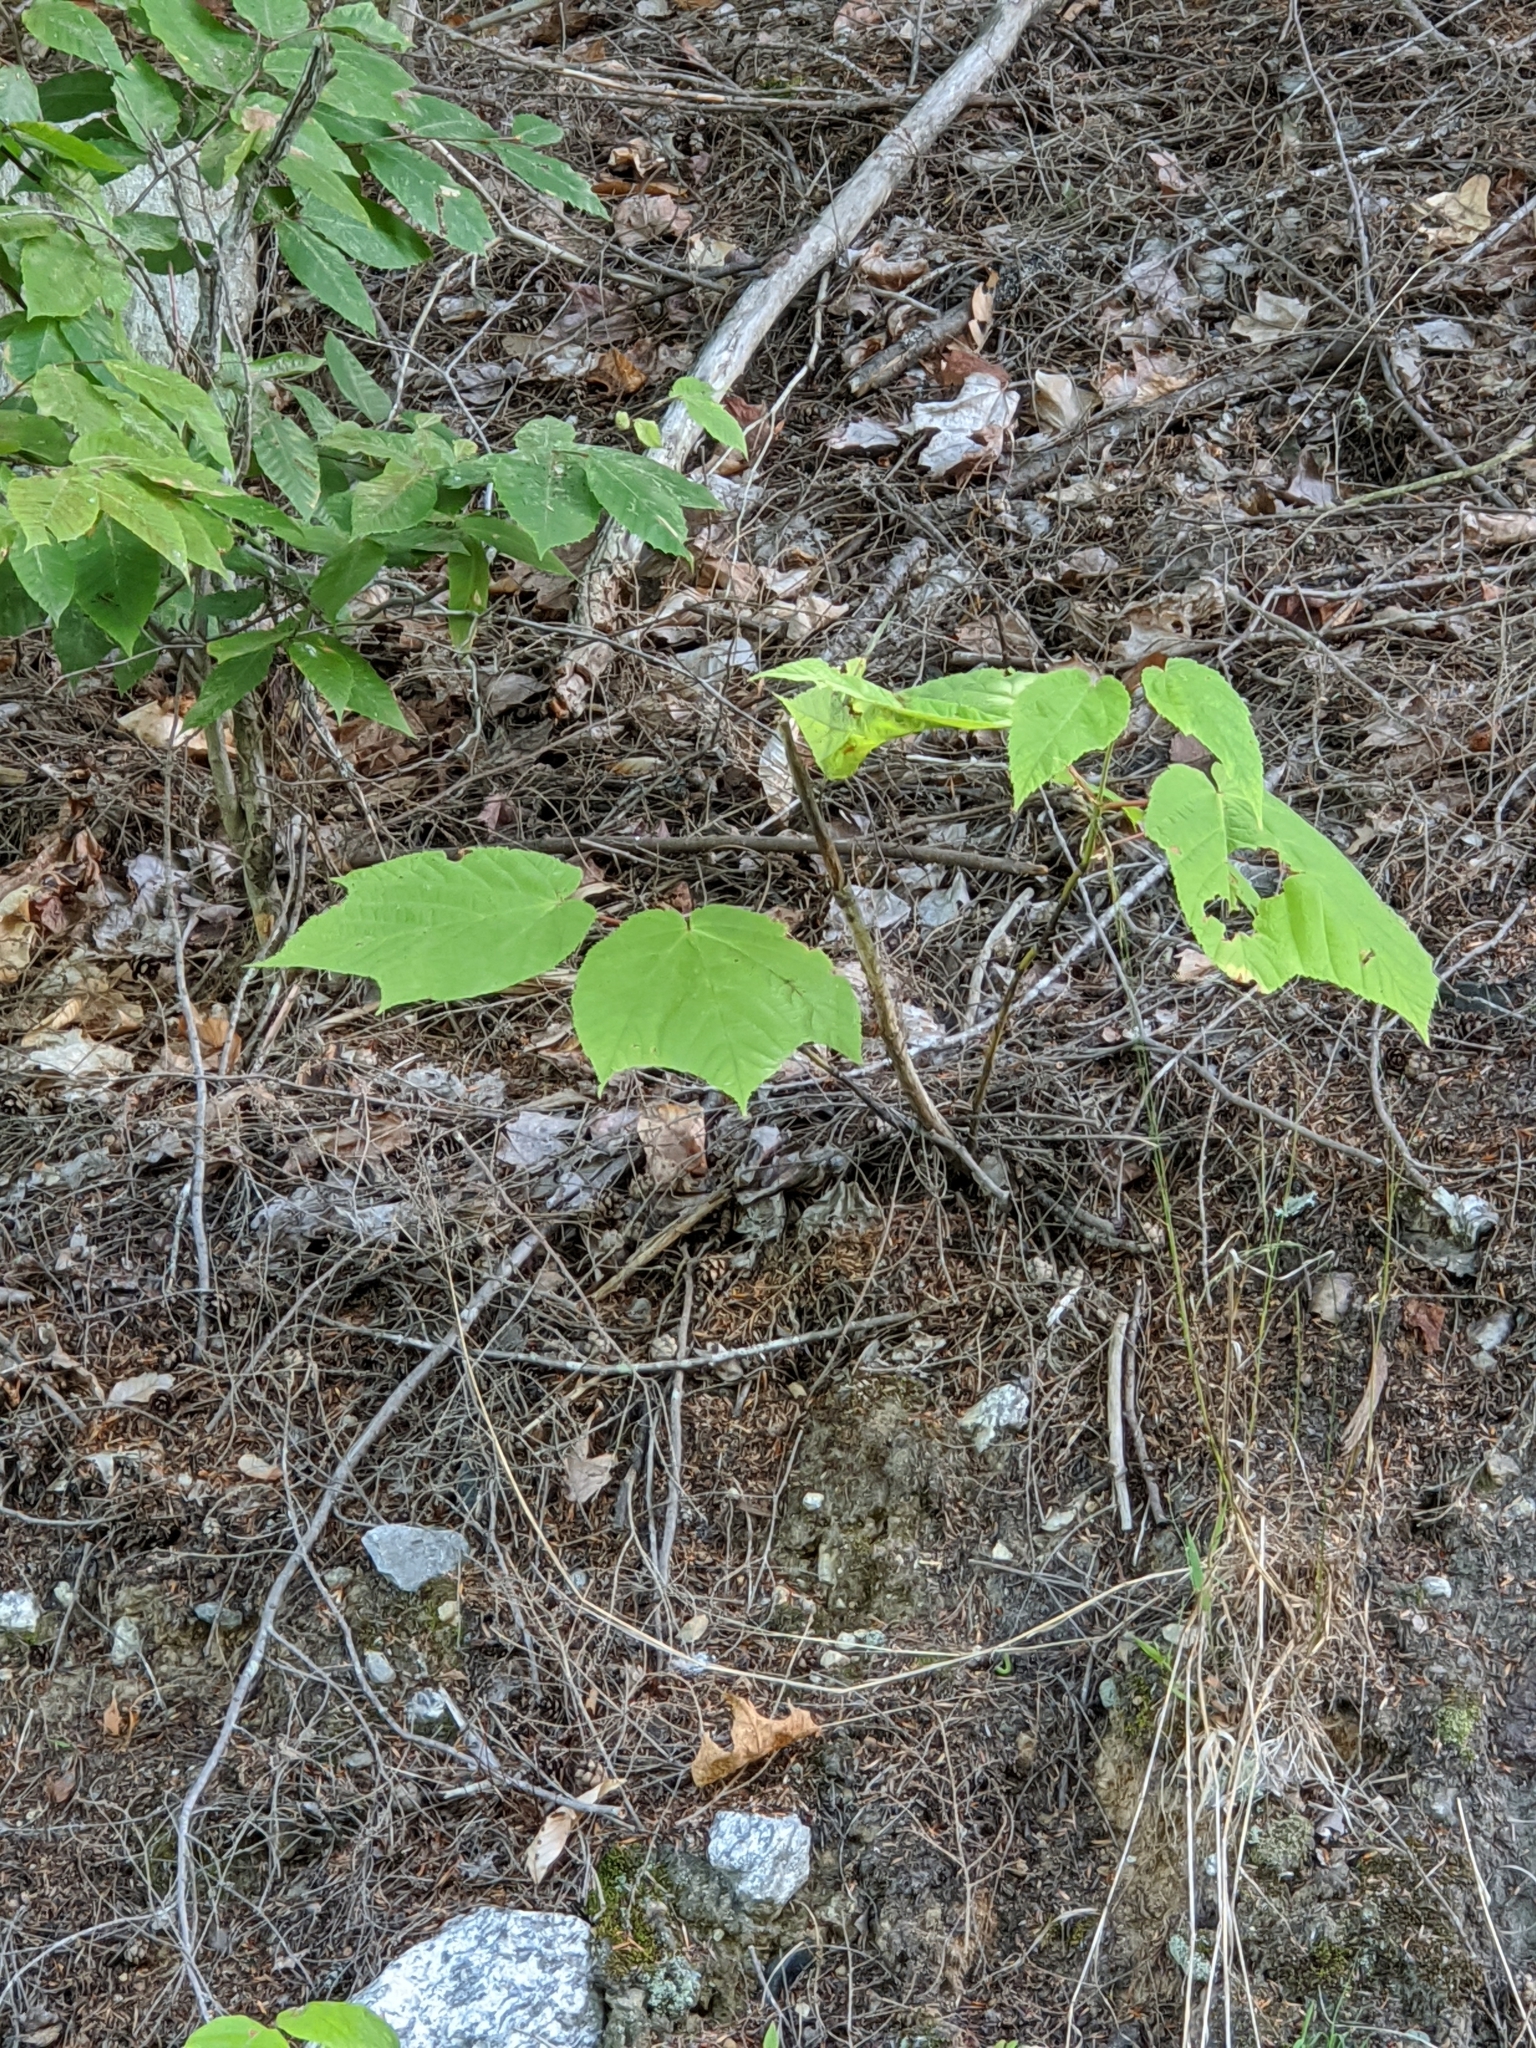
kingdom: Plantae
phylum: Tracheophyta
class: Magnoliopsida
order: Sapindales
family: Sapindaceae
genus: Acer
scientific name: Acer pensylvanicum
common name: Moosewood
